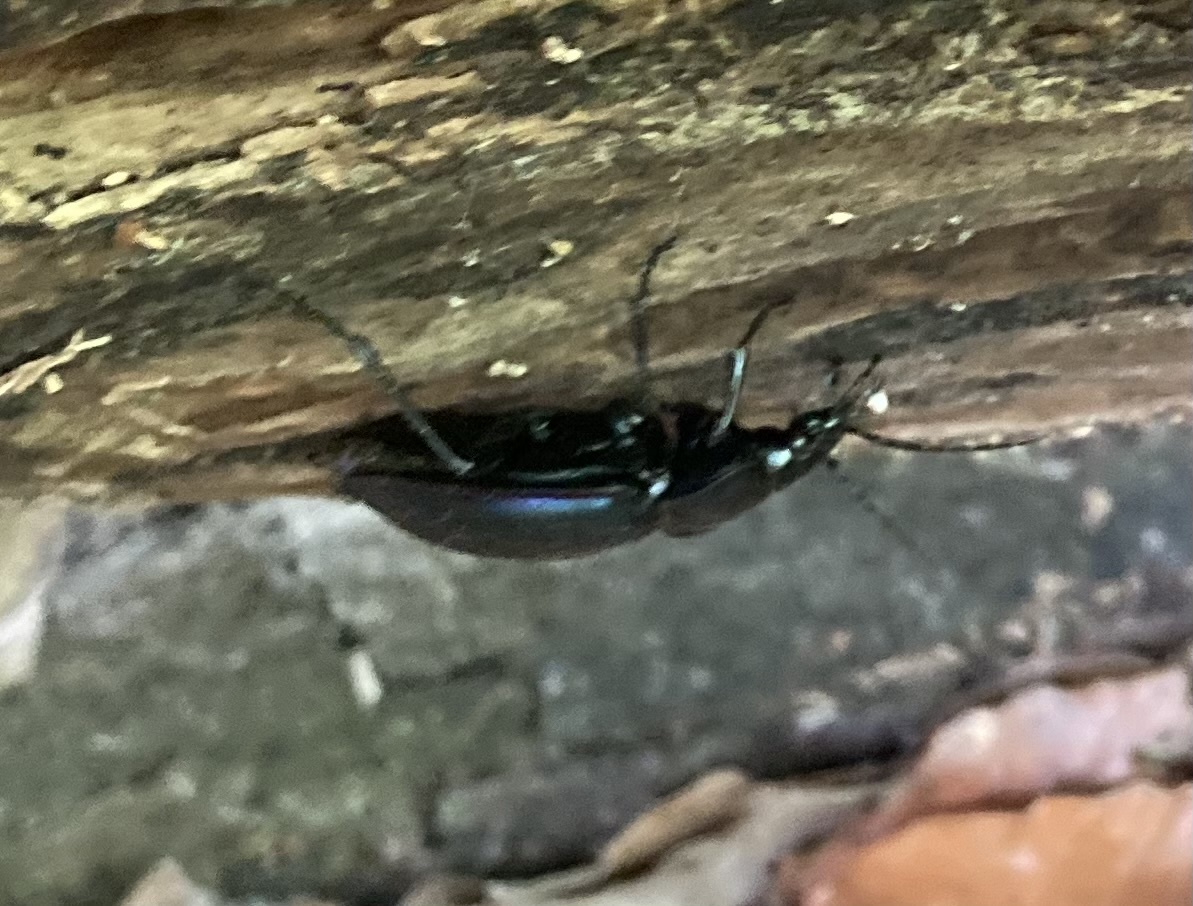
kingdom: Animalia
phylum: Arthropoda
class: Insecta
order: Coleoptera
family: Carabidae
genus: Carabus
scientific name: Carabus violaceus
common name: Violet ground beetle
